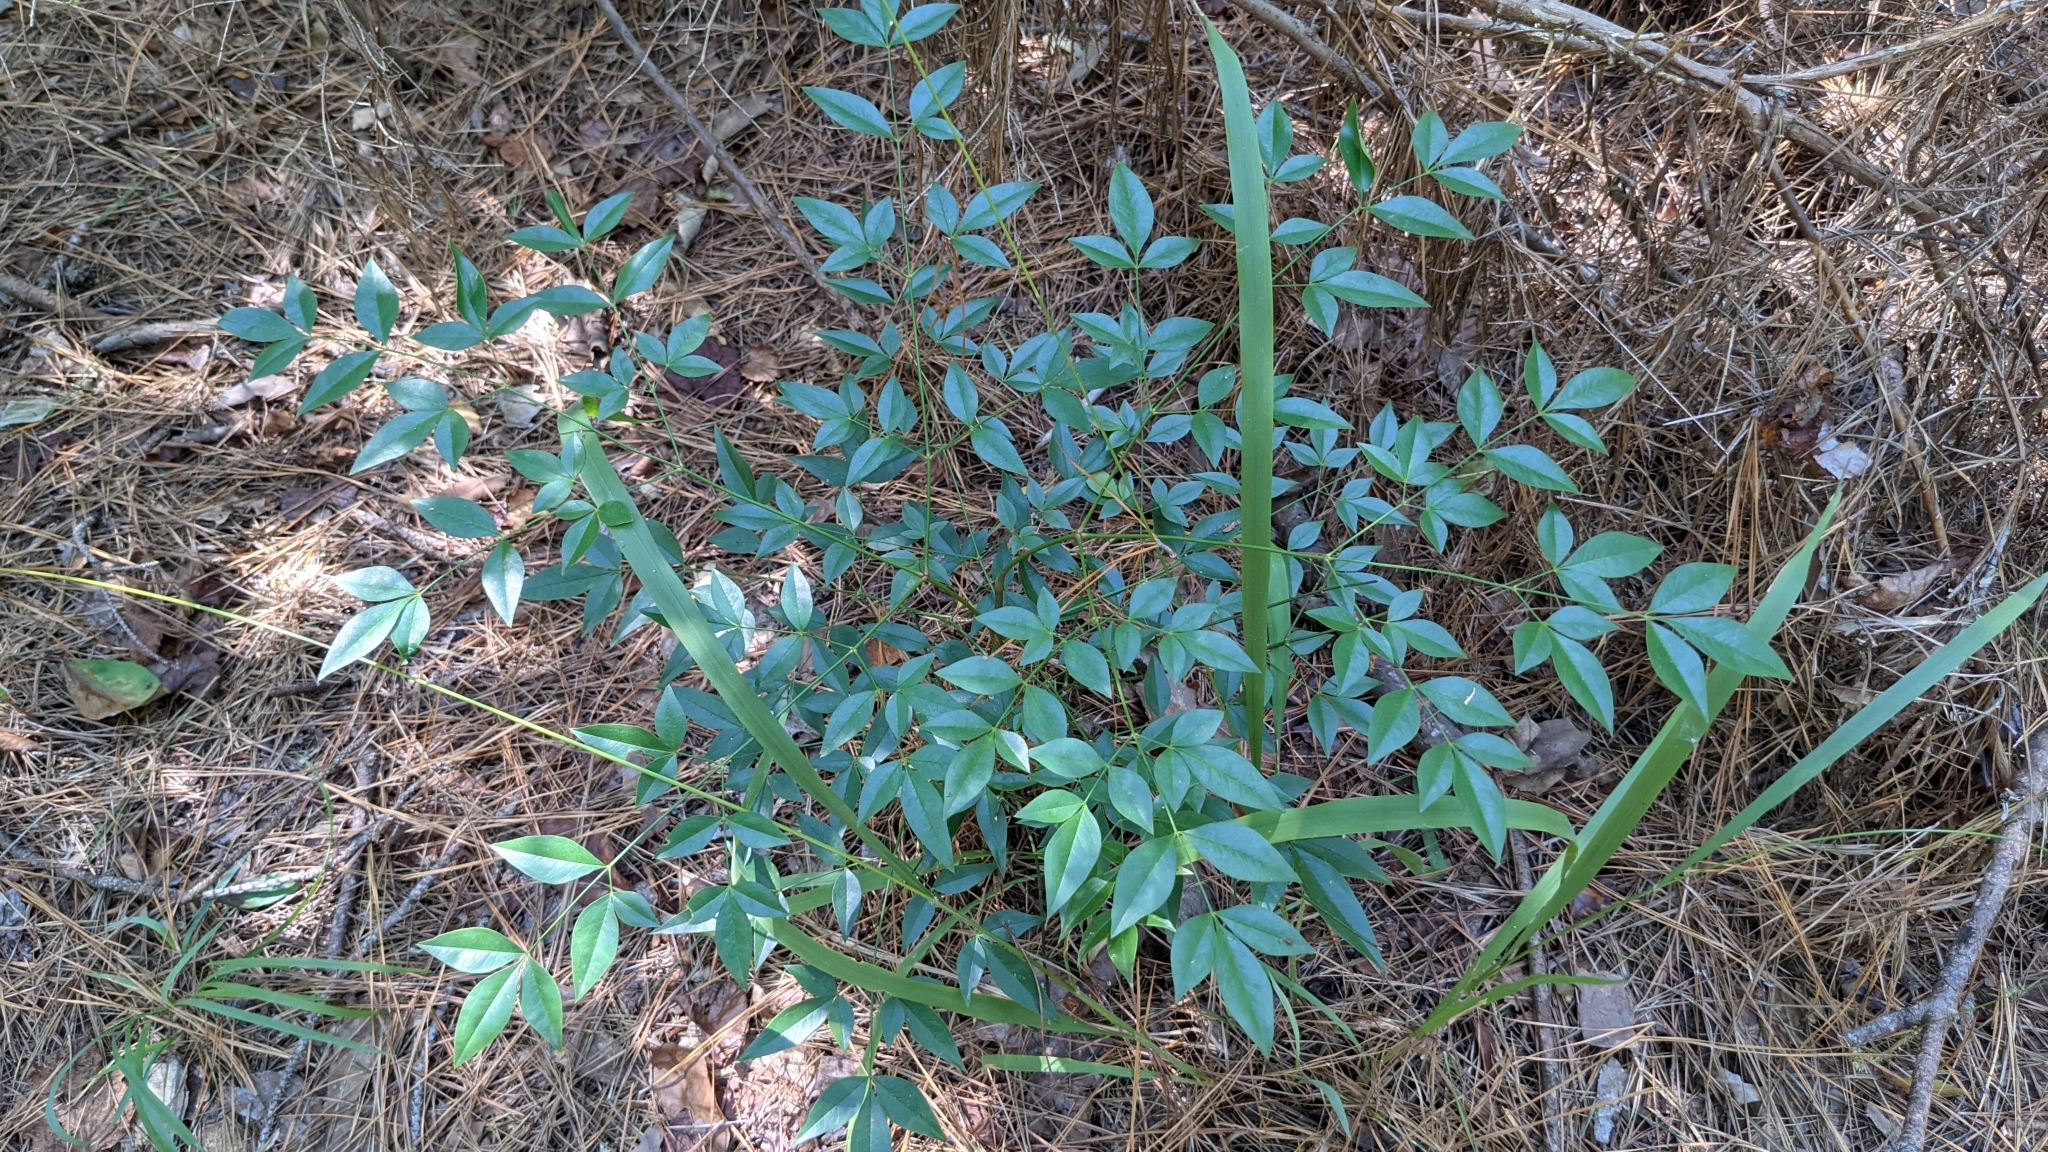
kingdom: Plantae
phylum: Tracheophyta
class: Magnoliopsida
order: Ranunculales
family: Berberidaceae
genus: Nandina
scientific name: Nandina domestica
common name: Sacred bamboo
